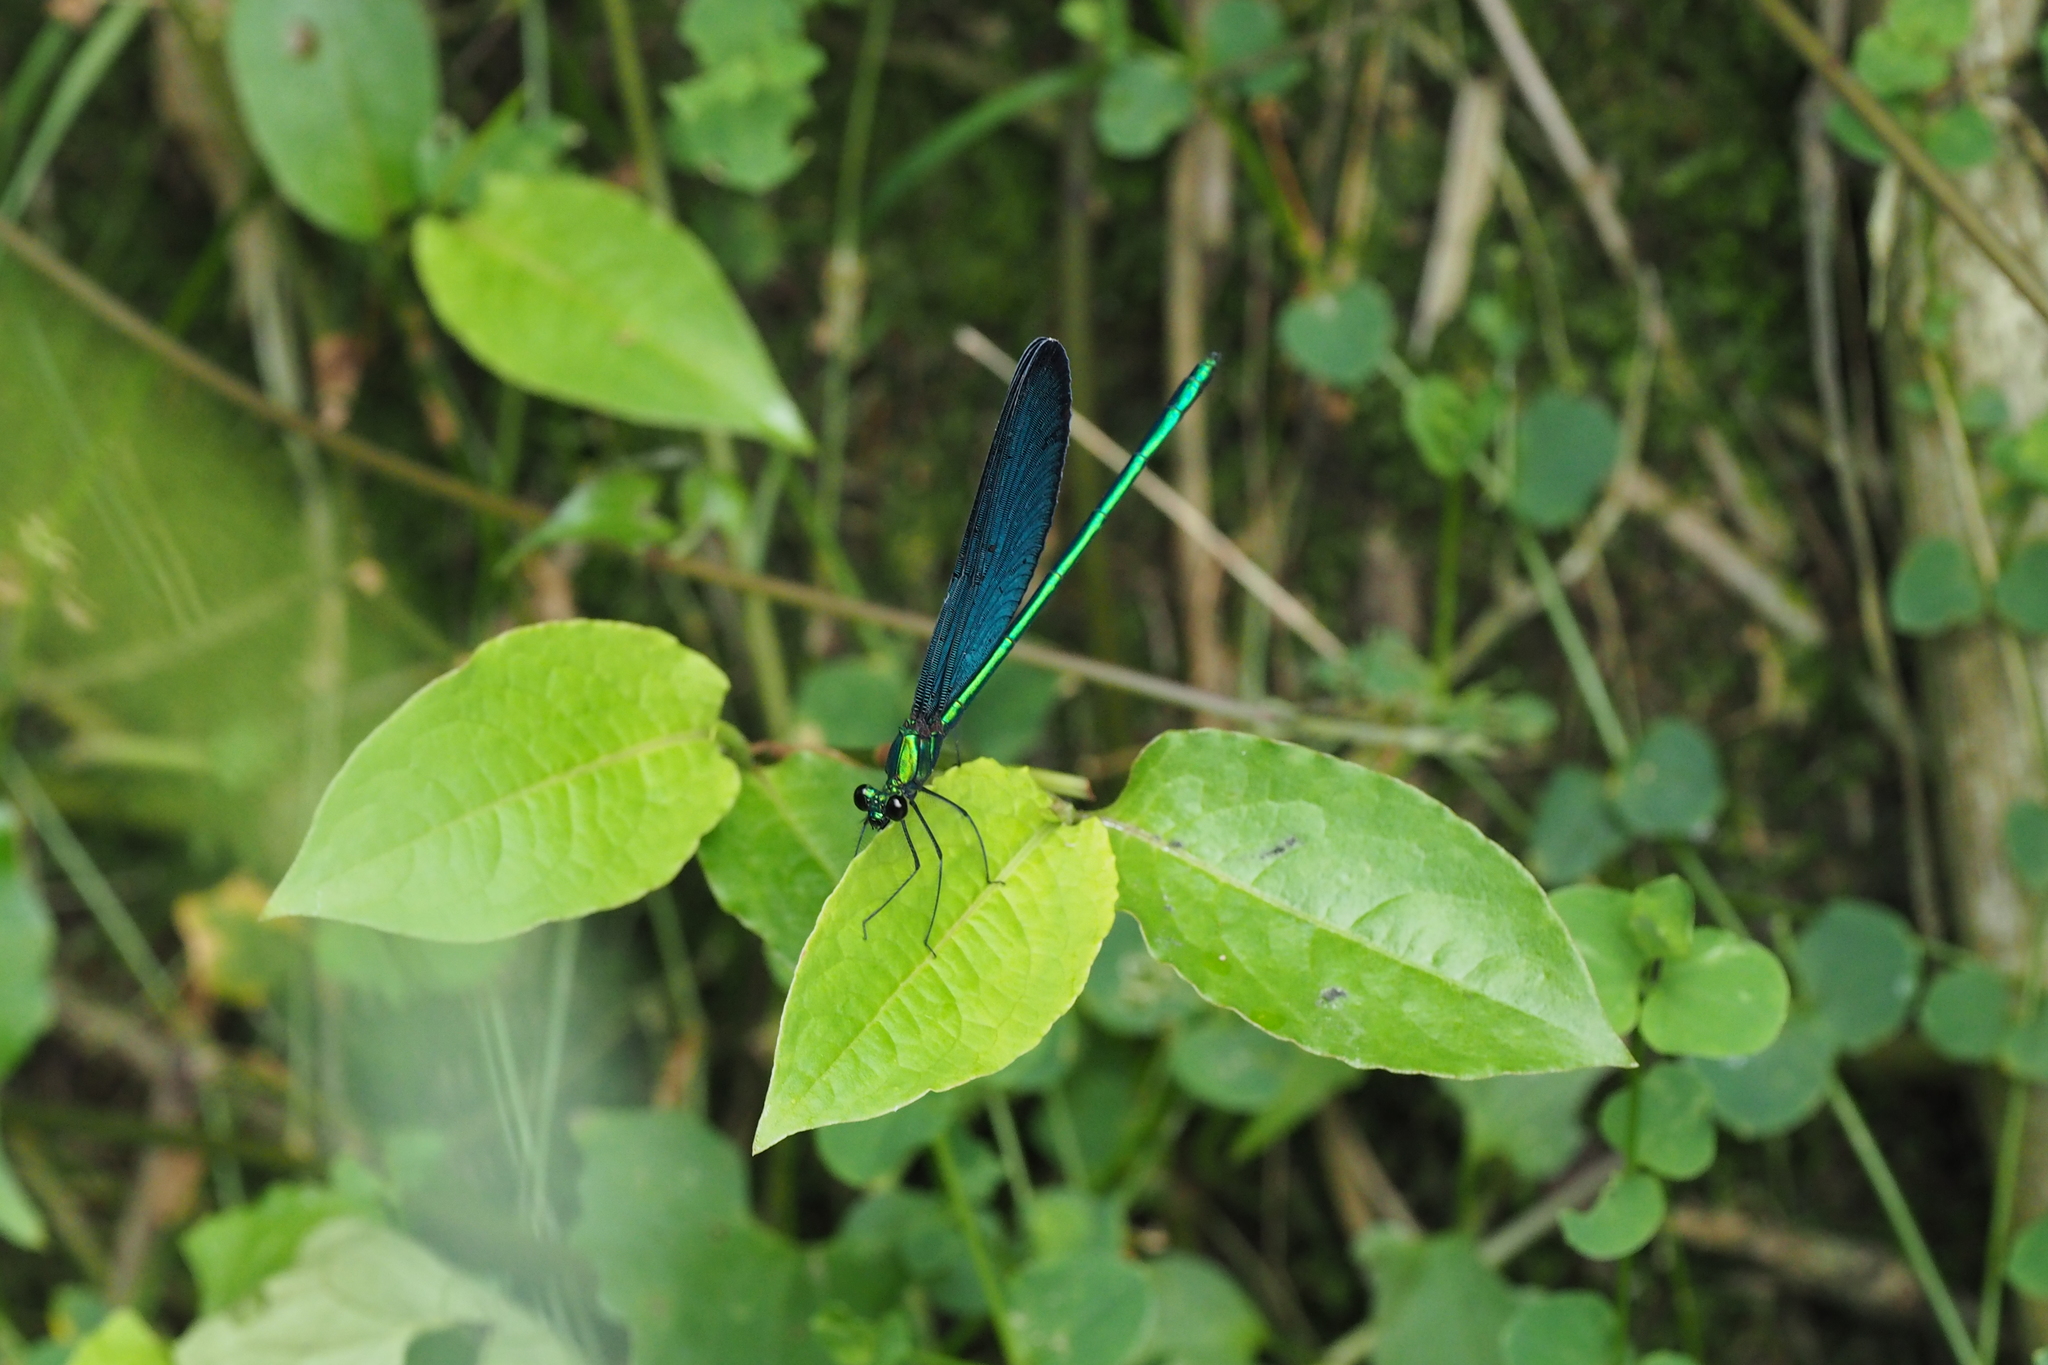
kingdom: Animalia
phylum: Arthropoda
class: Insecta
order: Odonata
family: Calopterygidae
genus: Matrona
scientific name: Matrona cyanoptera
